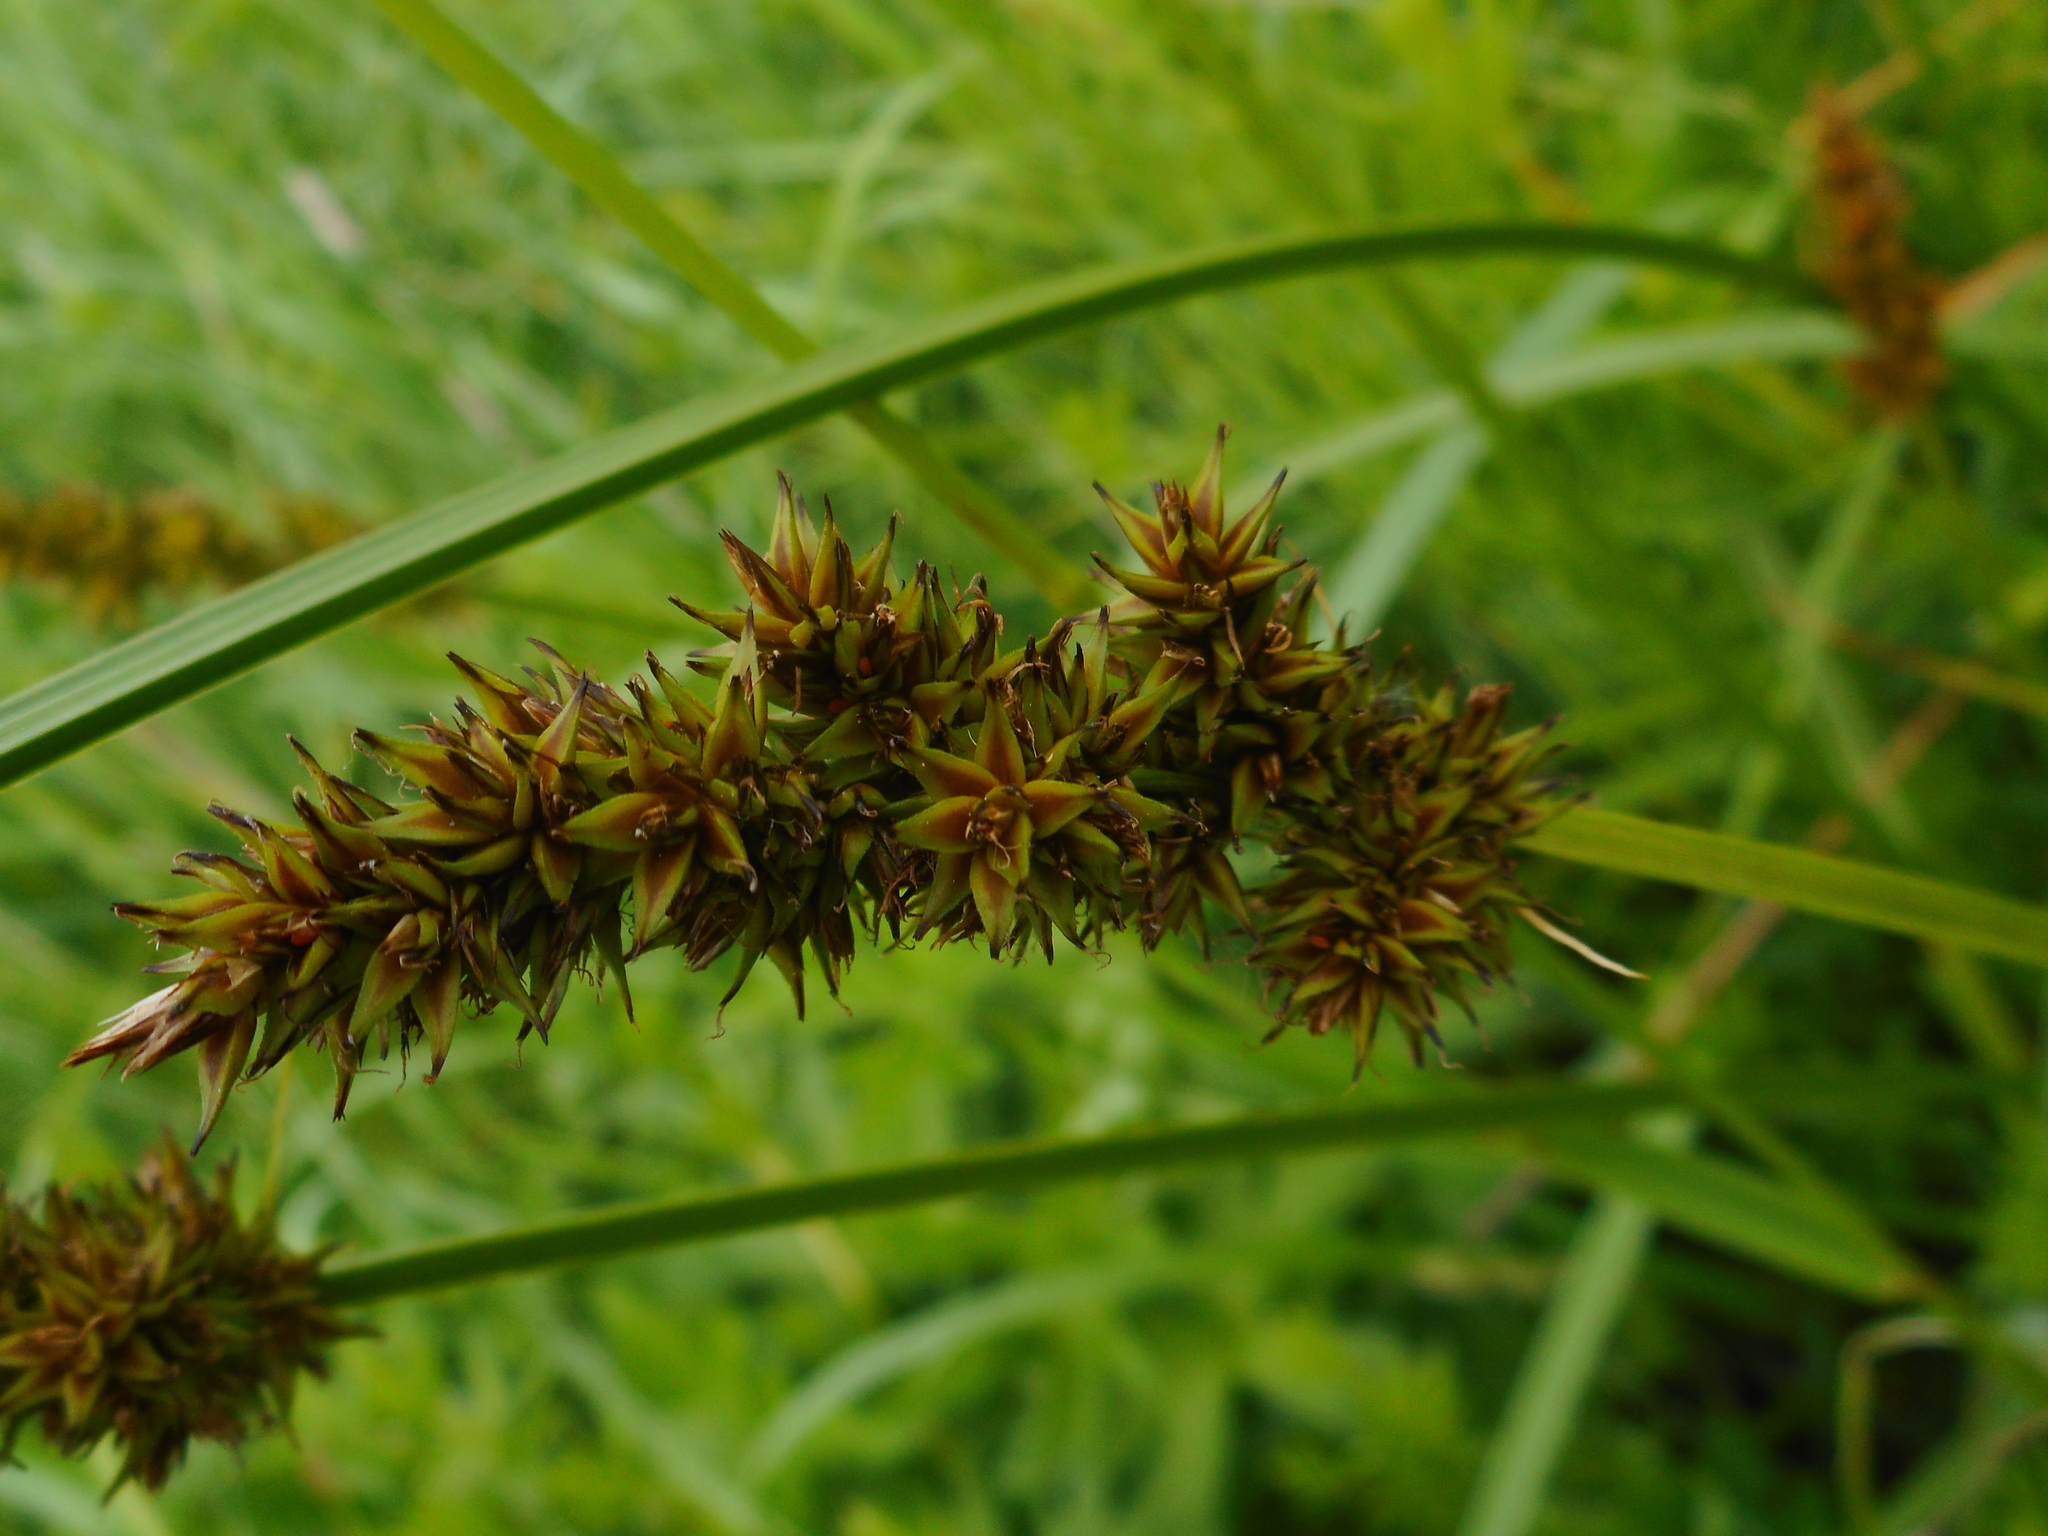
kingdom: Plantae
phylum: Tracheophyta
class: Liliopsida
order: Poales
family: Cyperaceae
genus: Carex
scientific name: Carex vulpina
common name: True fox-sedge
